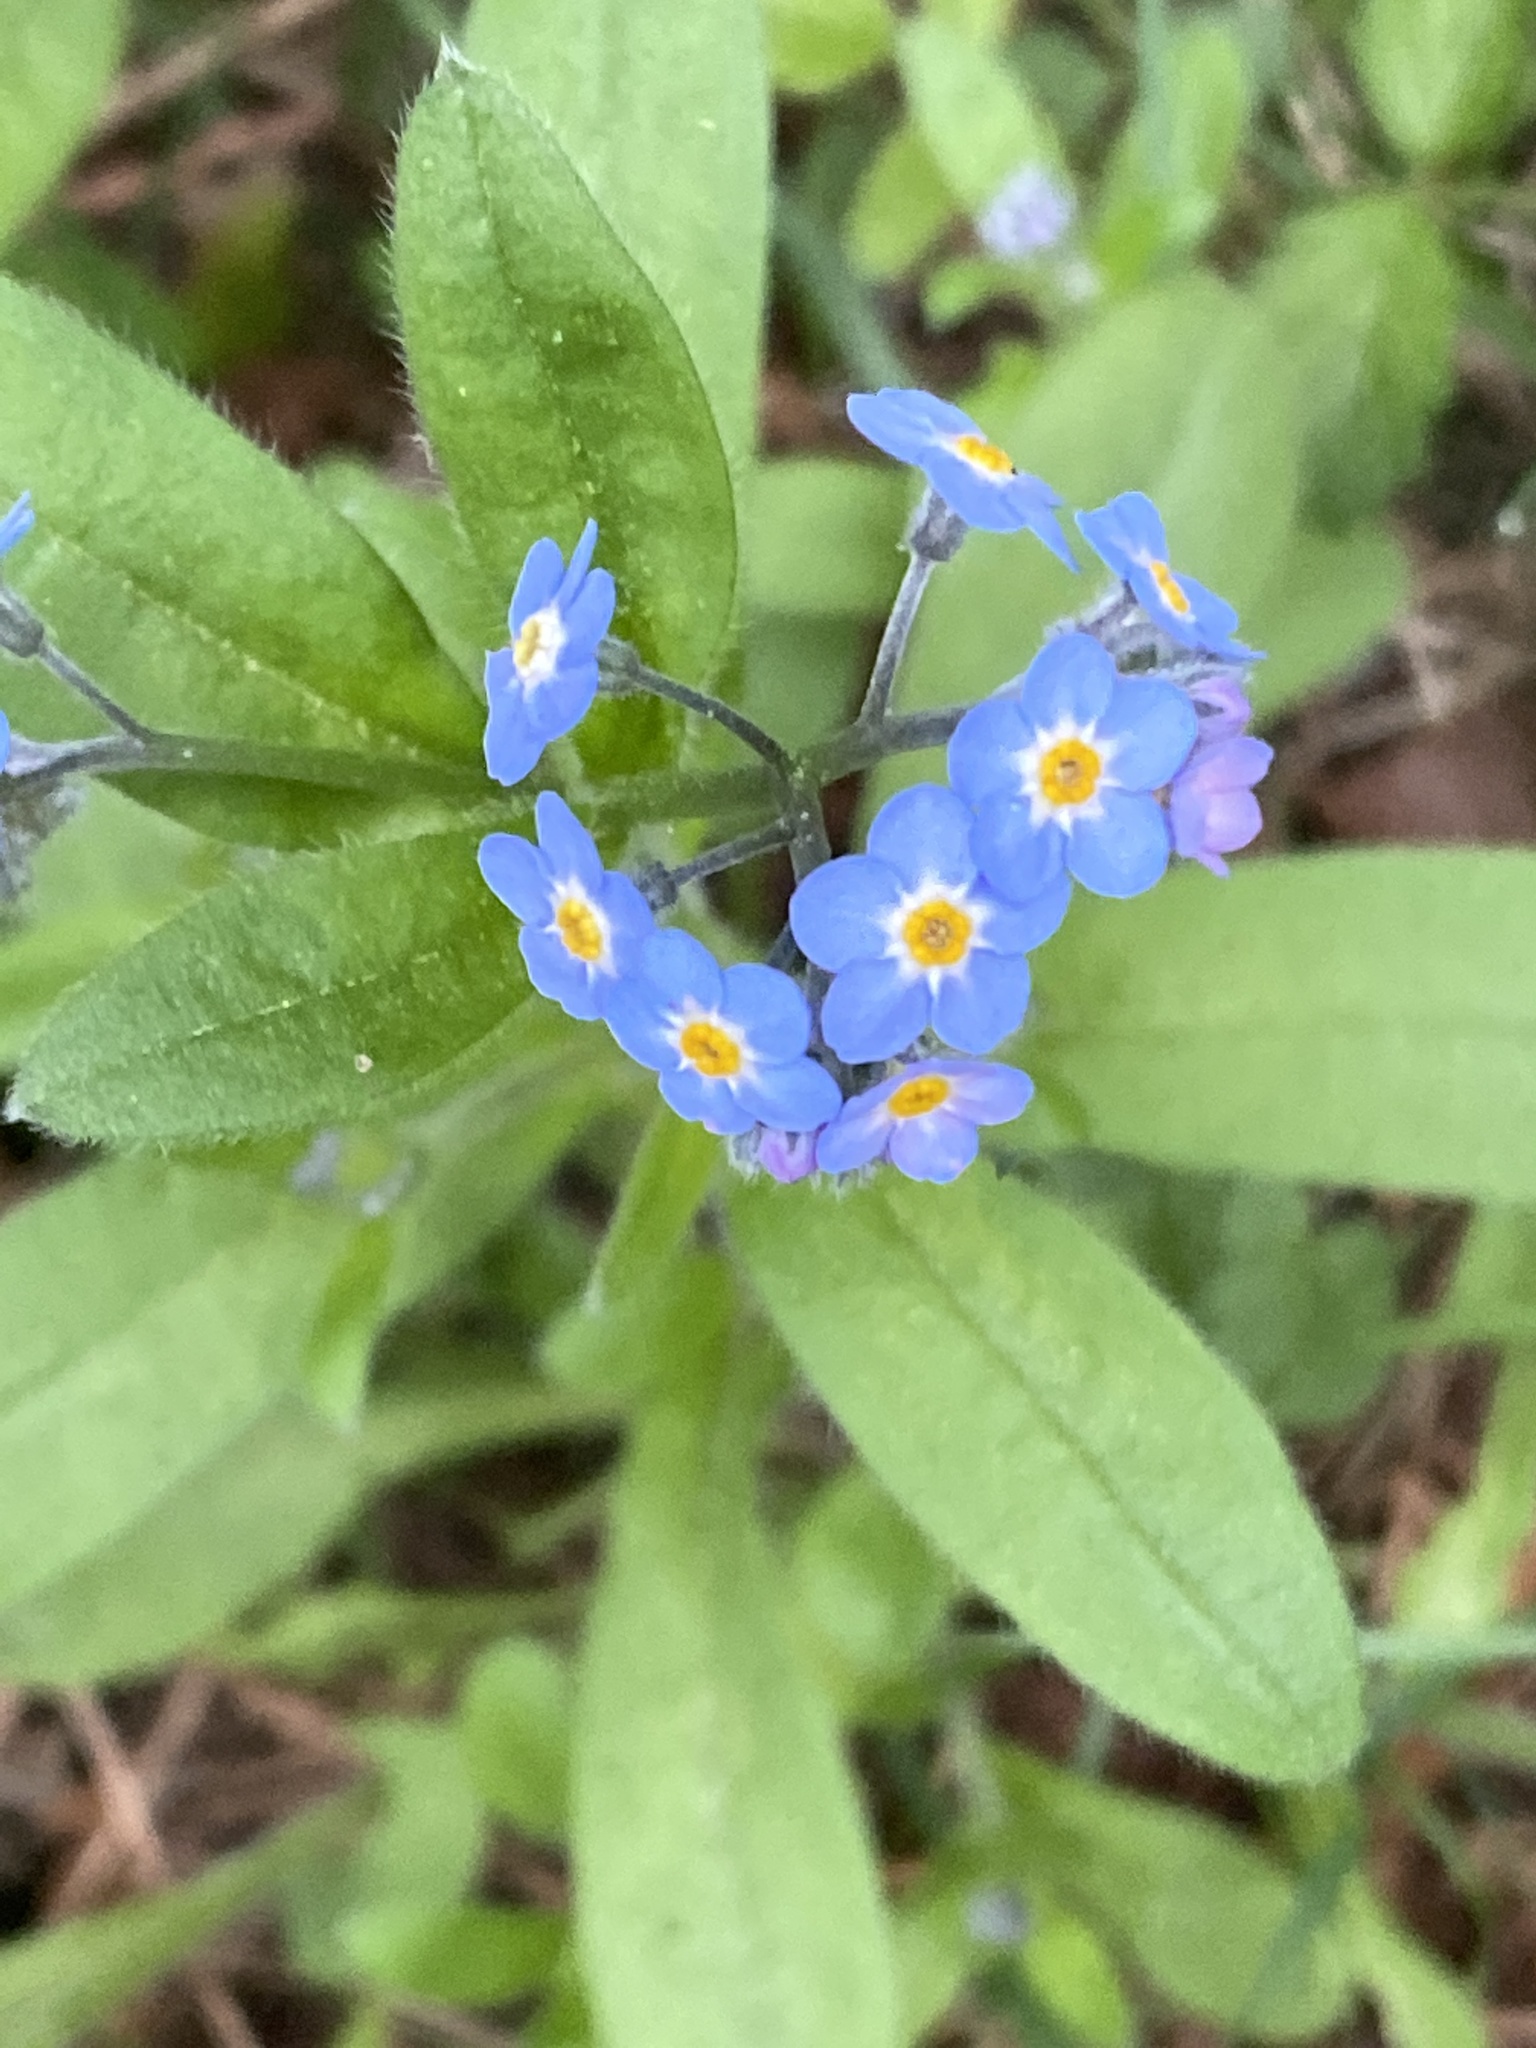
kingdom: Plantae
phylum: Tracheophyta
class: Magnoliopsida
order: Boraginales
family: Boraginaceae
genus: Myosotis
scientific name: Myosotis sylvatica
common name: Wood forget-me-not
